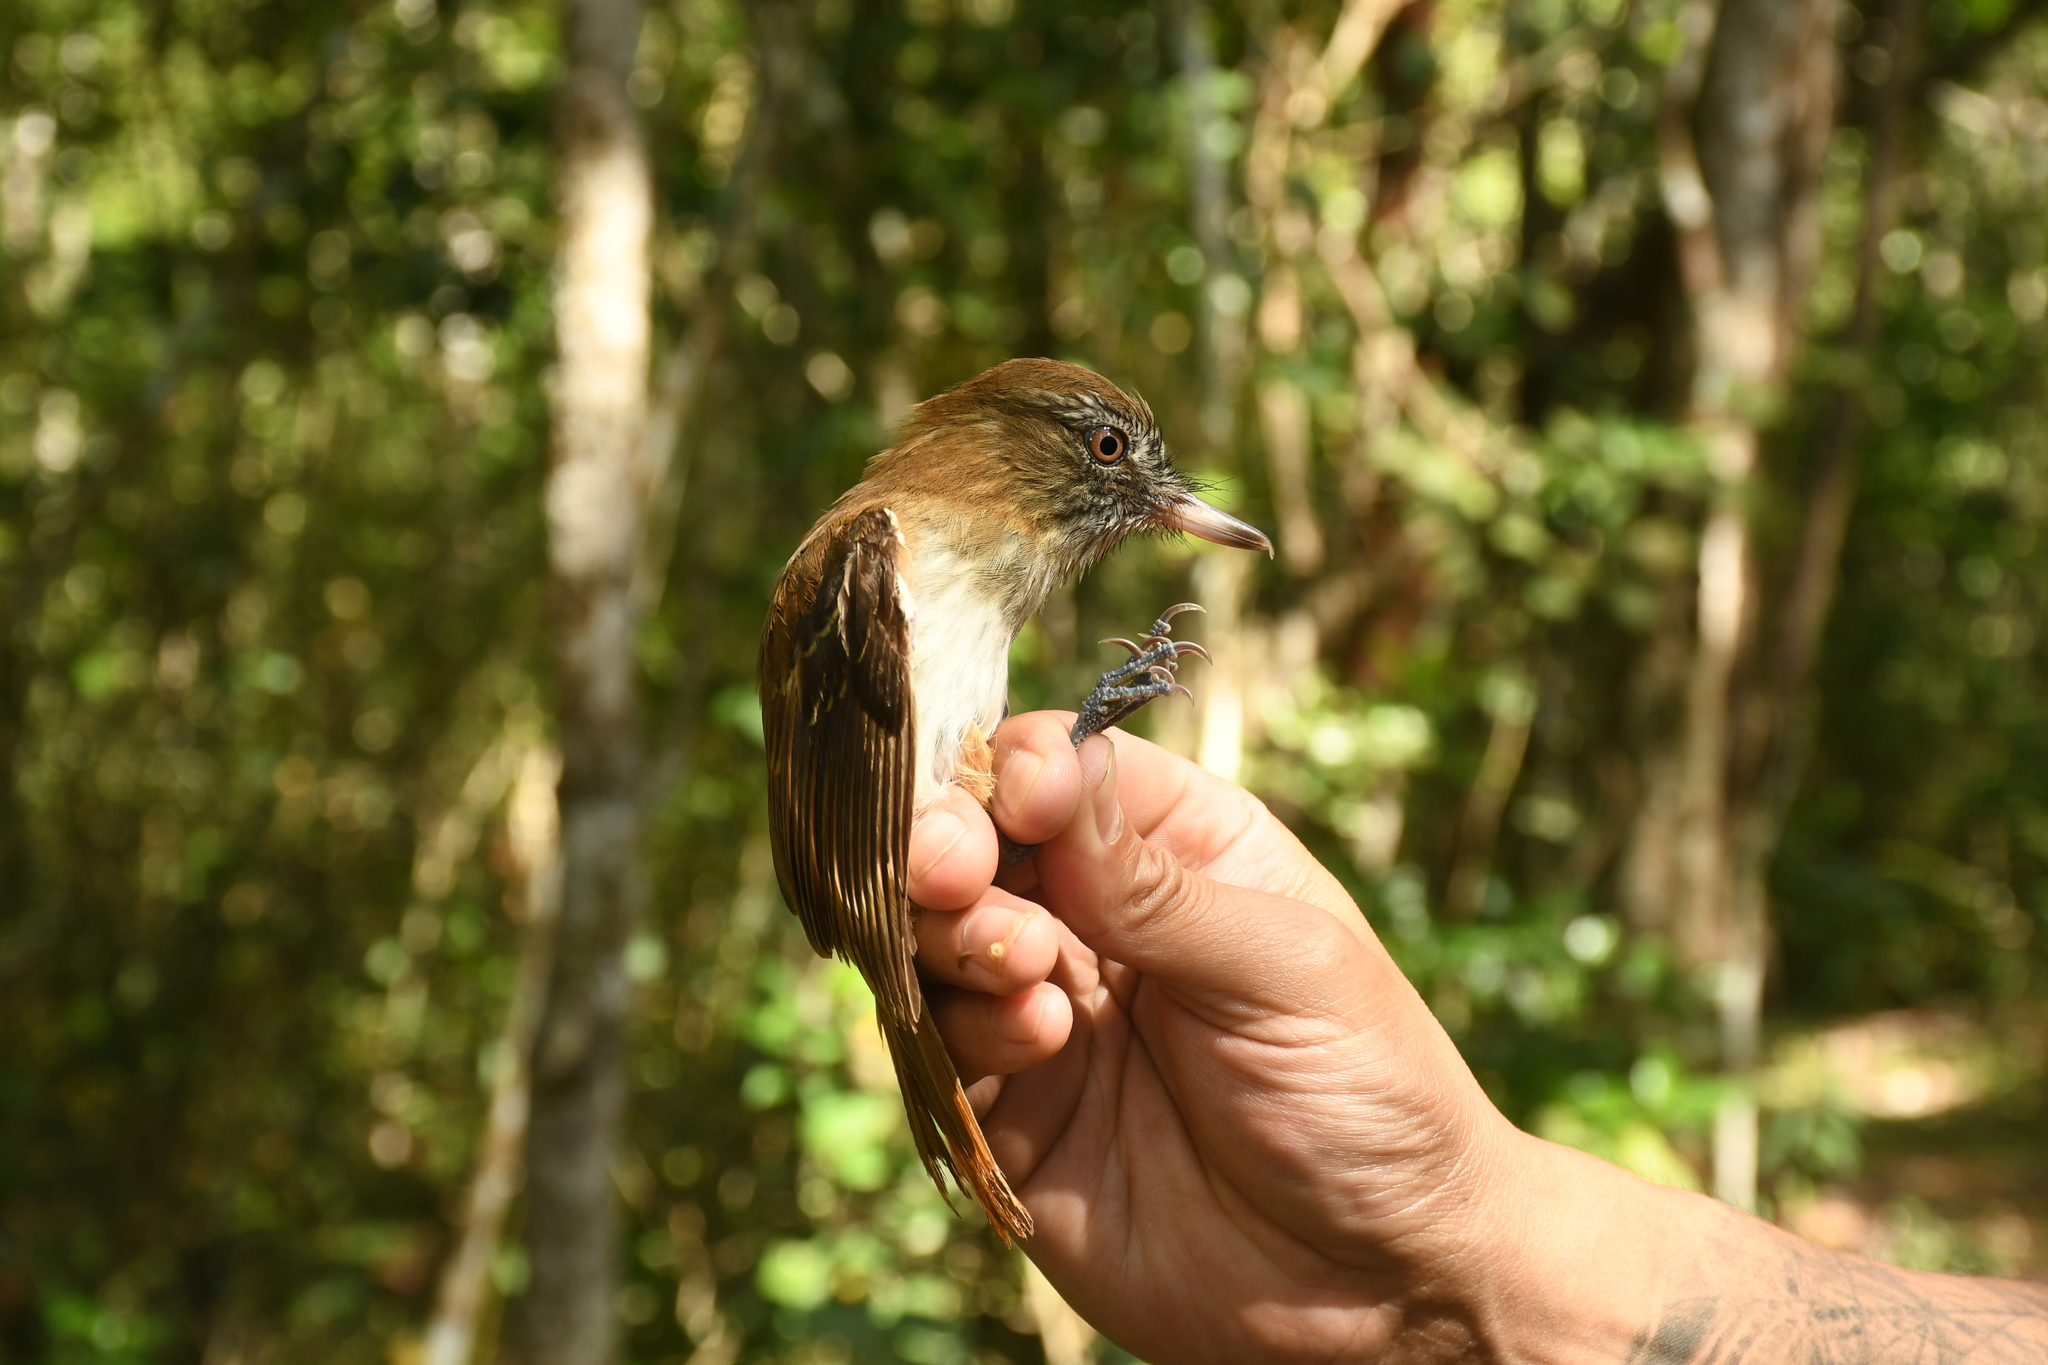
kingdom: Animalia
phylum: Chordata
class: Aves
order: Passeriformes
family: Tyrannidae
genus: Attila
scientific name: Attila spadiceus
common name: Bright-rumped attila
